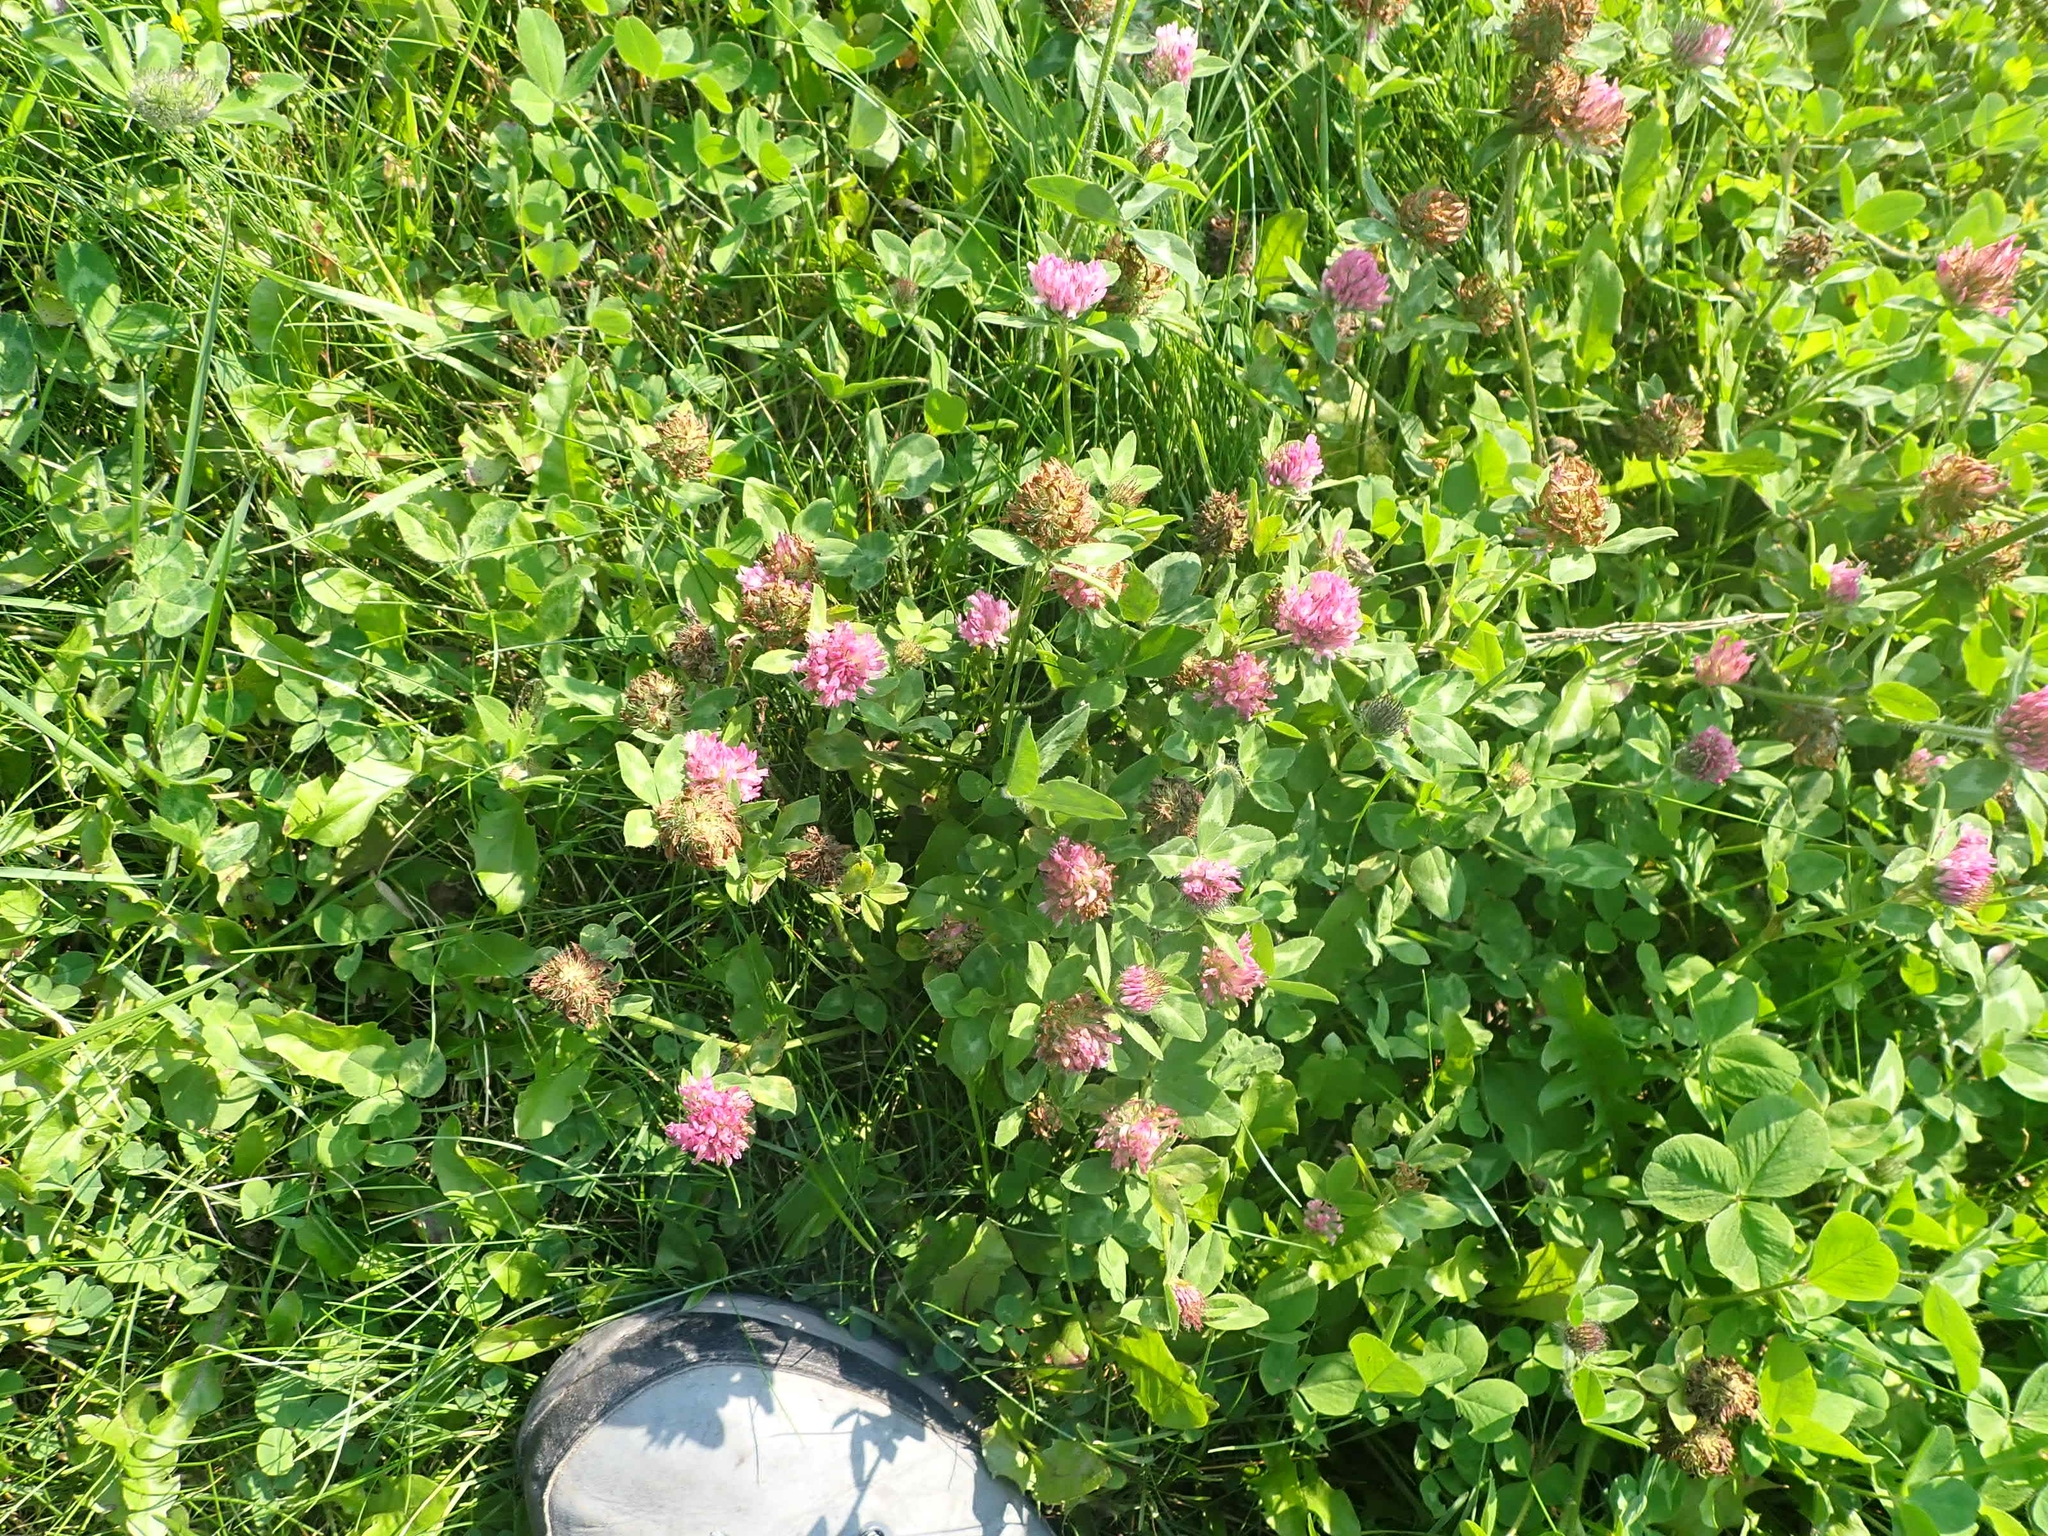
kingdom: Plantae
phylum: Tracheophyta
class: Magnoliopsida
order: Fabales
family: Fabaceae
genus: Trifolium
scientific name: Trifolium pratense
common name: Red clover
